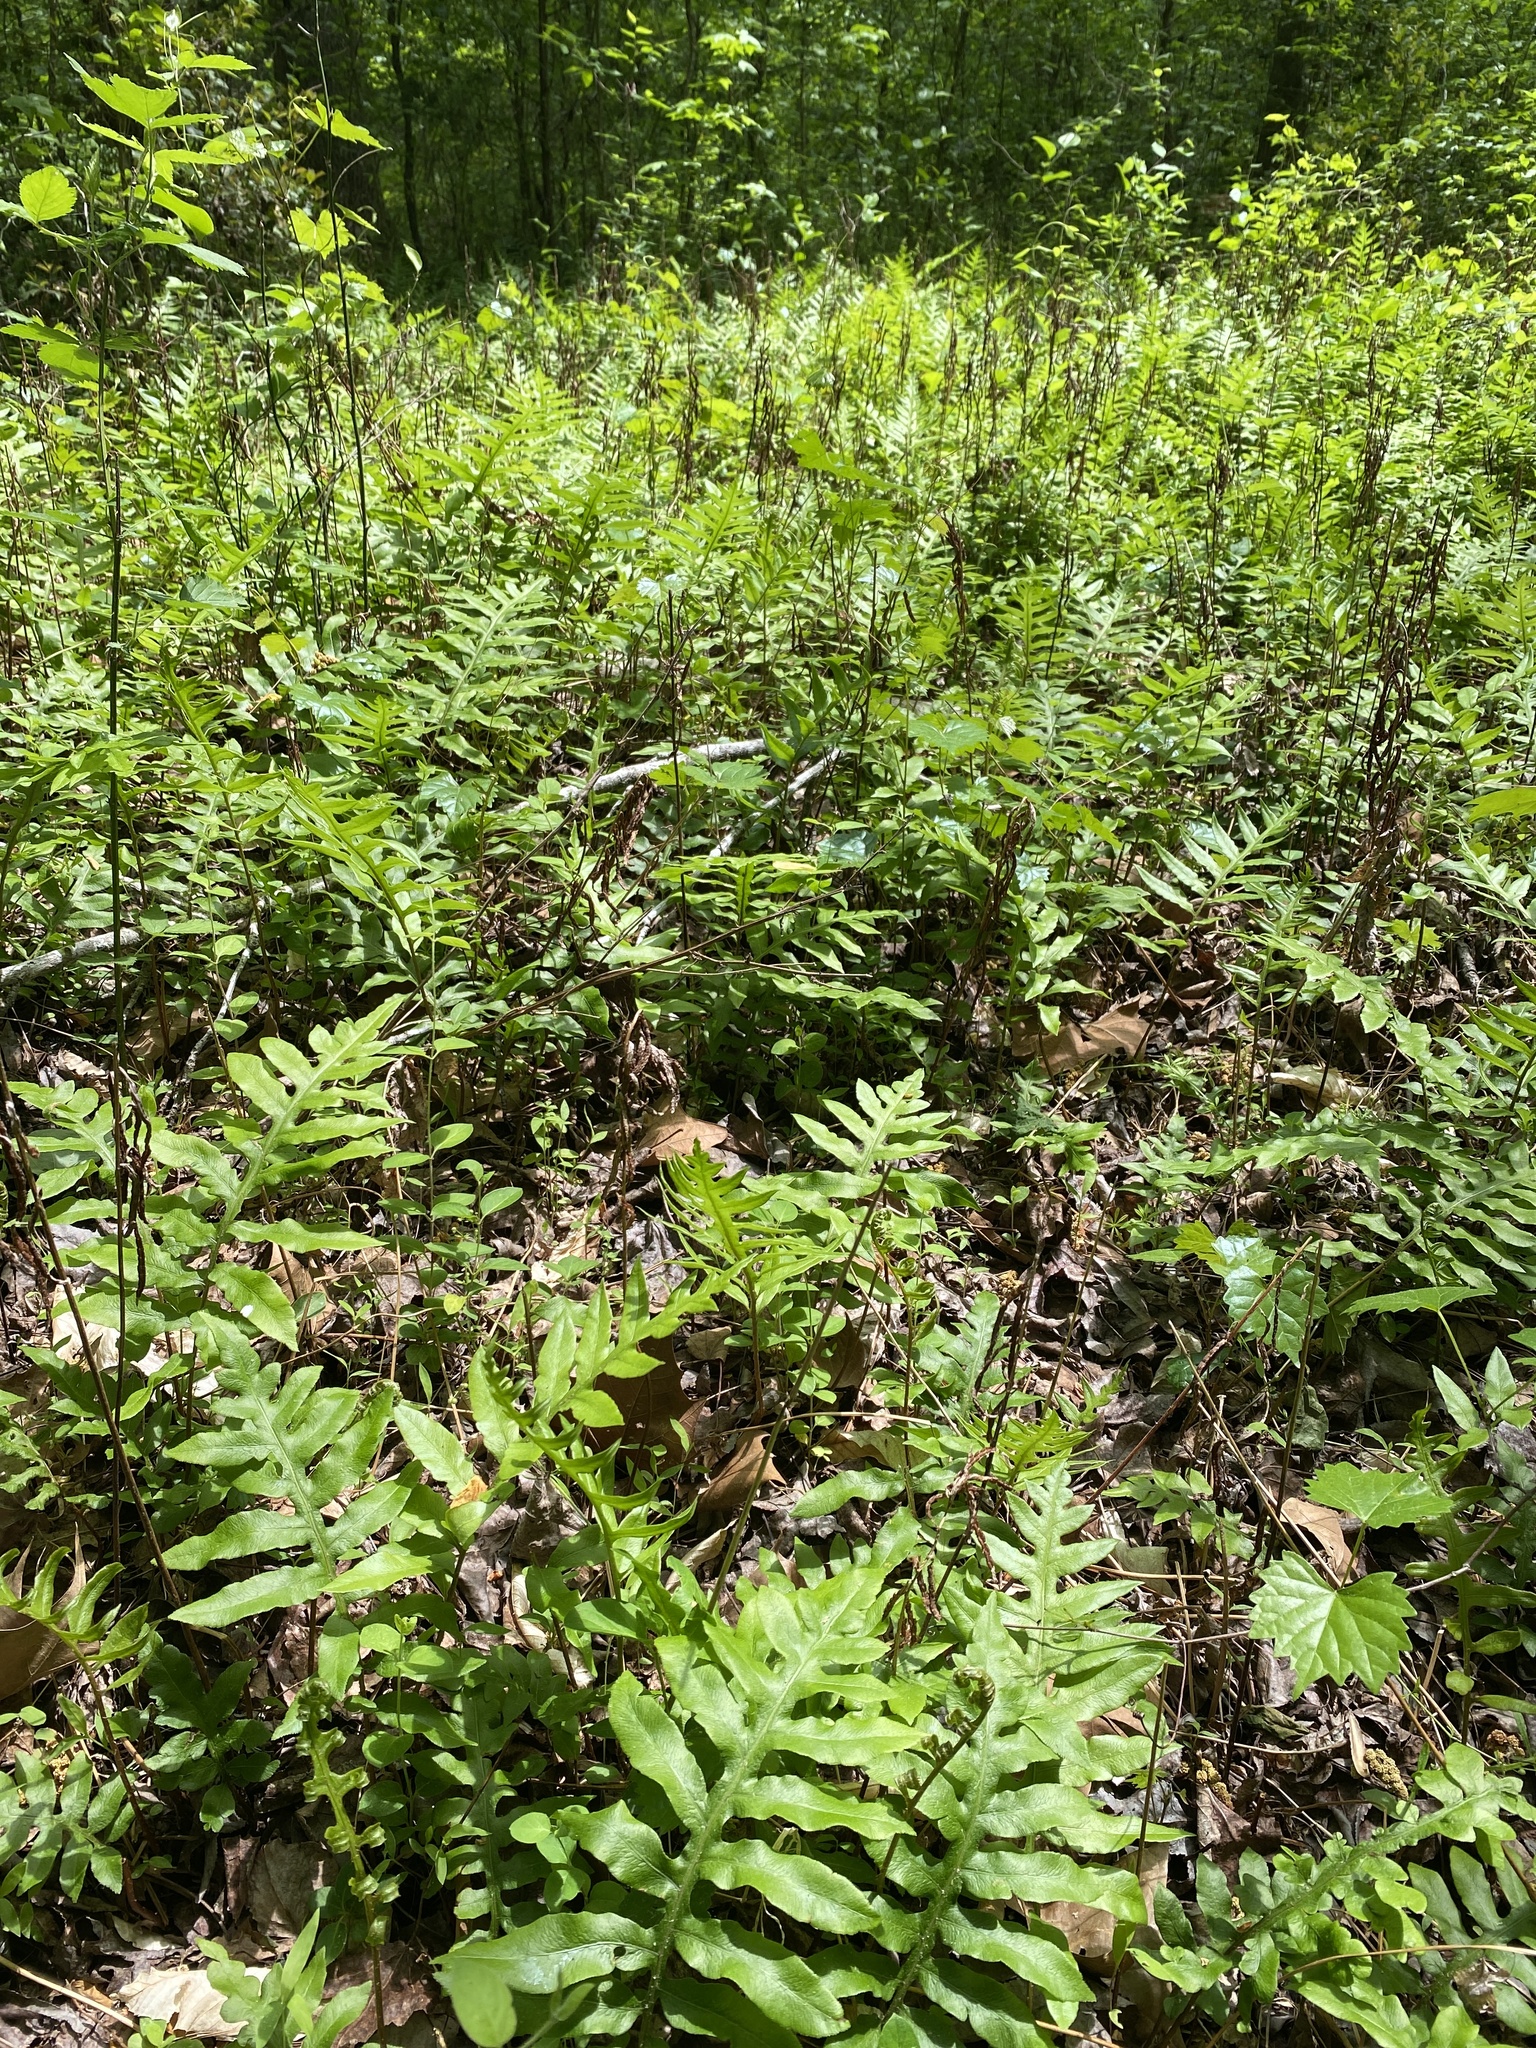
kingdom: Plantae
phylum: Tracheophyta
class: Polypodiopsida
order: Polypodiales
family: Blechnaceae
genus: Lorinseria
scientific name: Lorinseria areolata
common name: Dwarf chain fern
